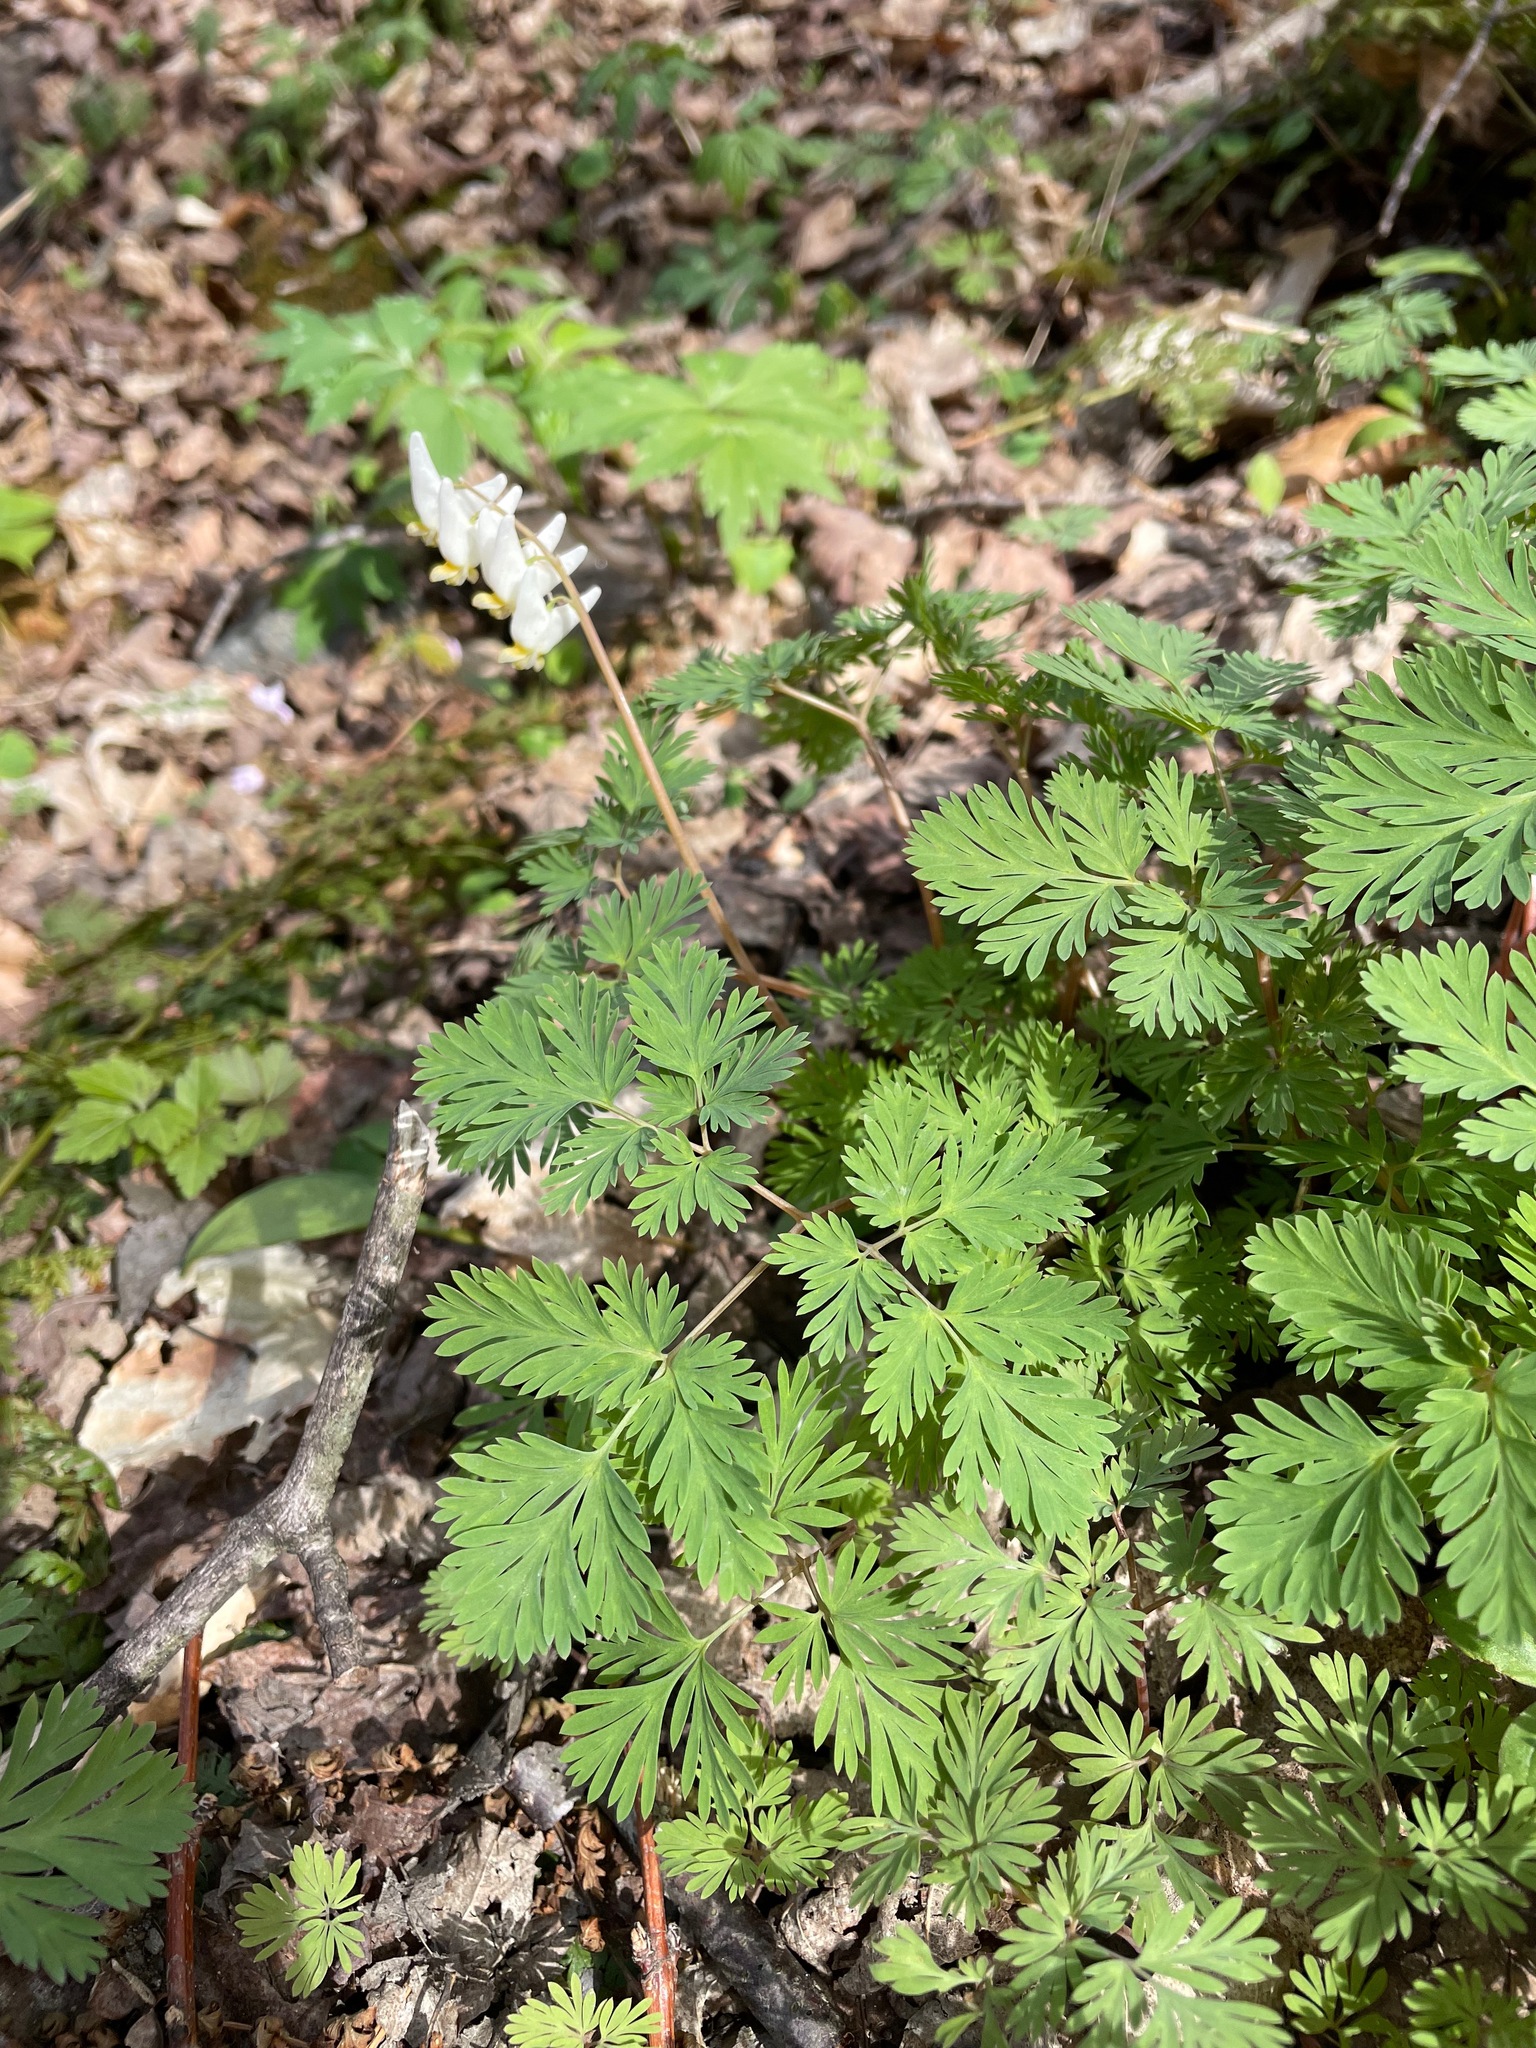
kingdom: Plantae
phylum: Tracheophyta
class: Magnoliopsida
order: Ranunculales
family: Papaveraceae
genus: Dicentra
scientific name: Dicentra cucullaria
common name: Dutchman's breeches
